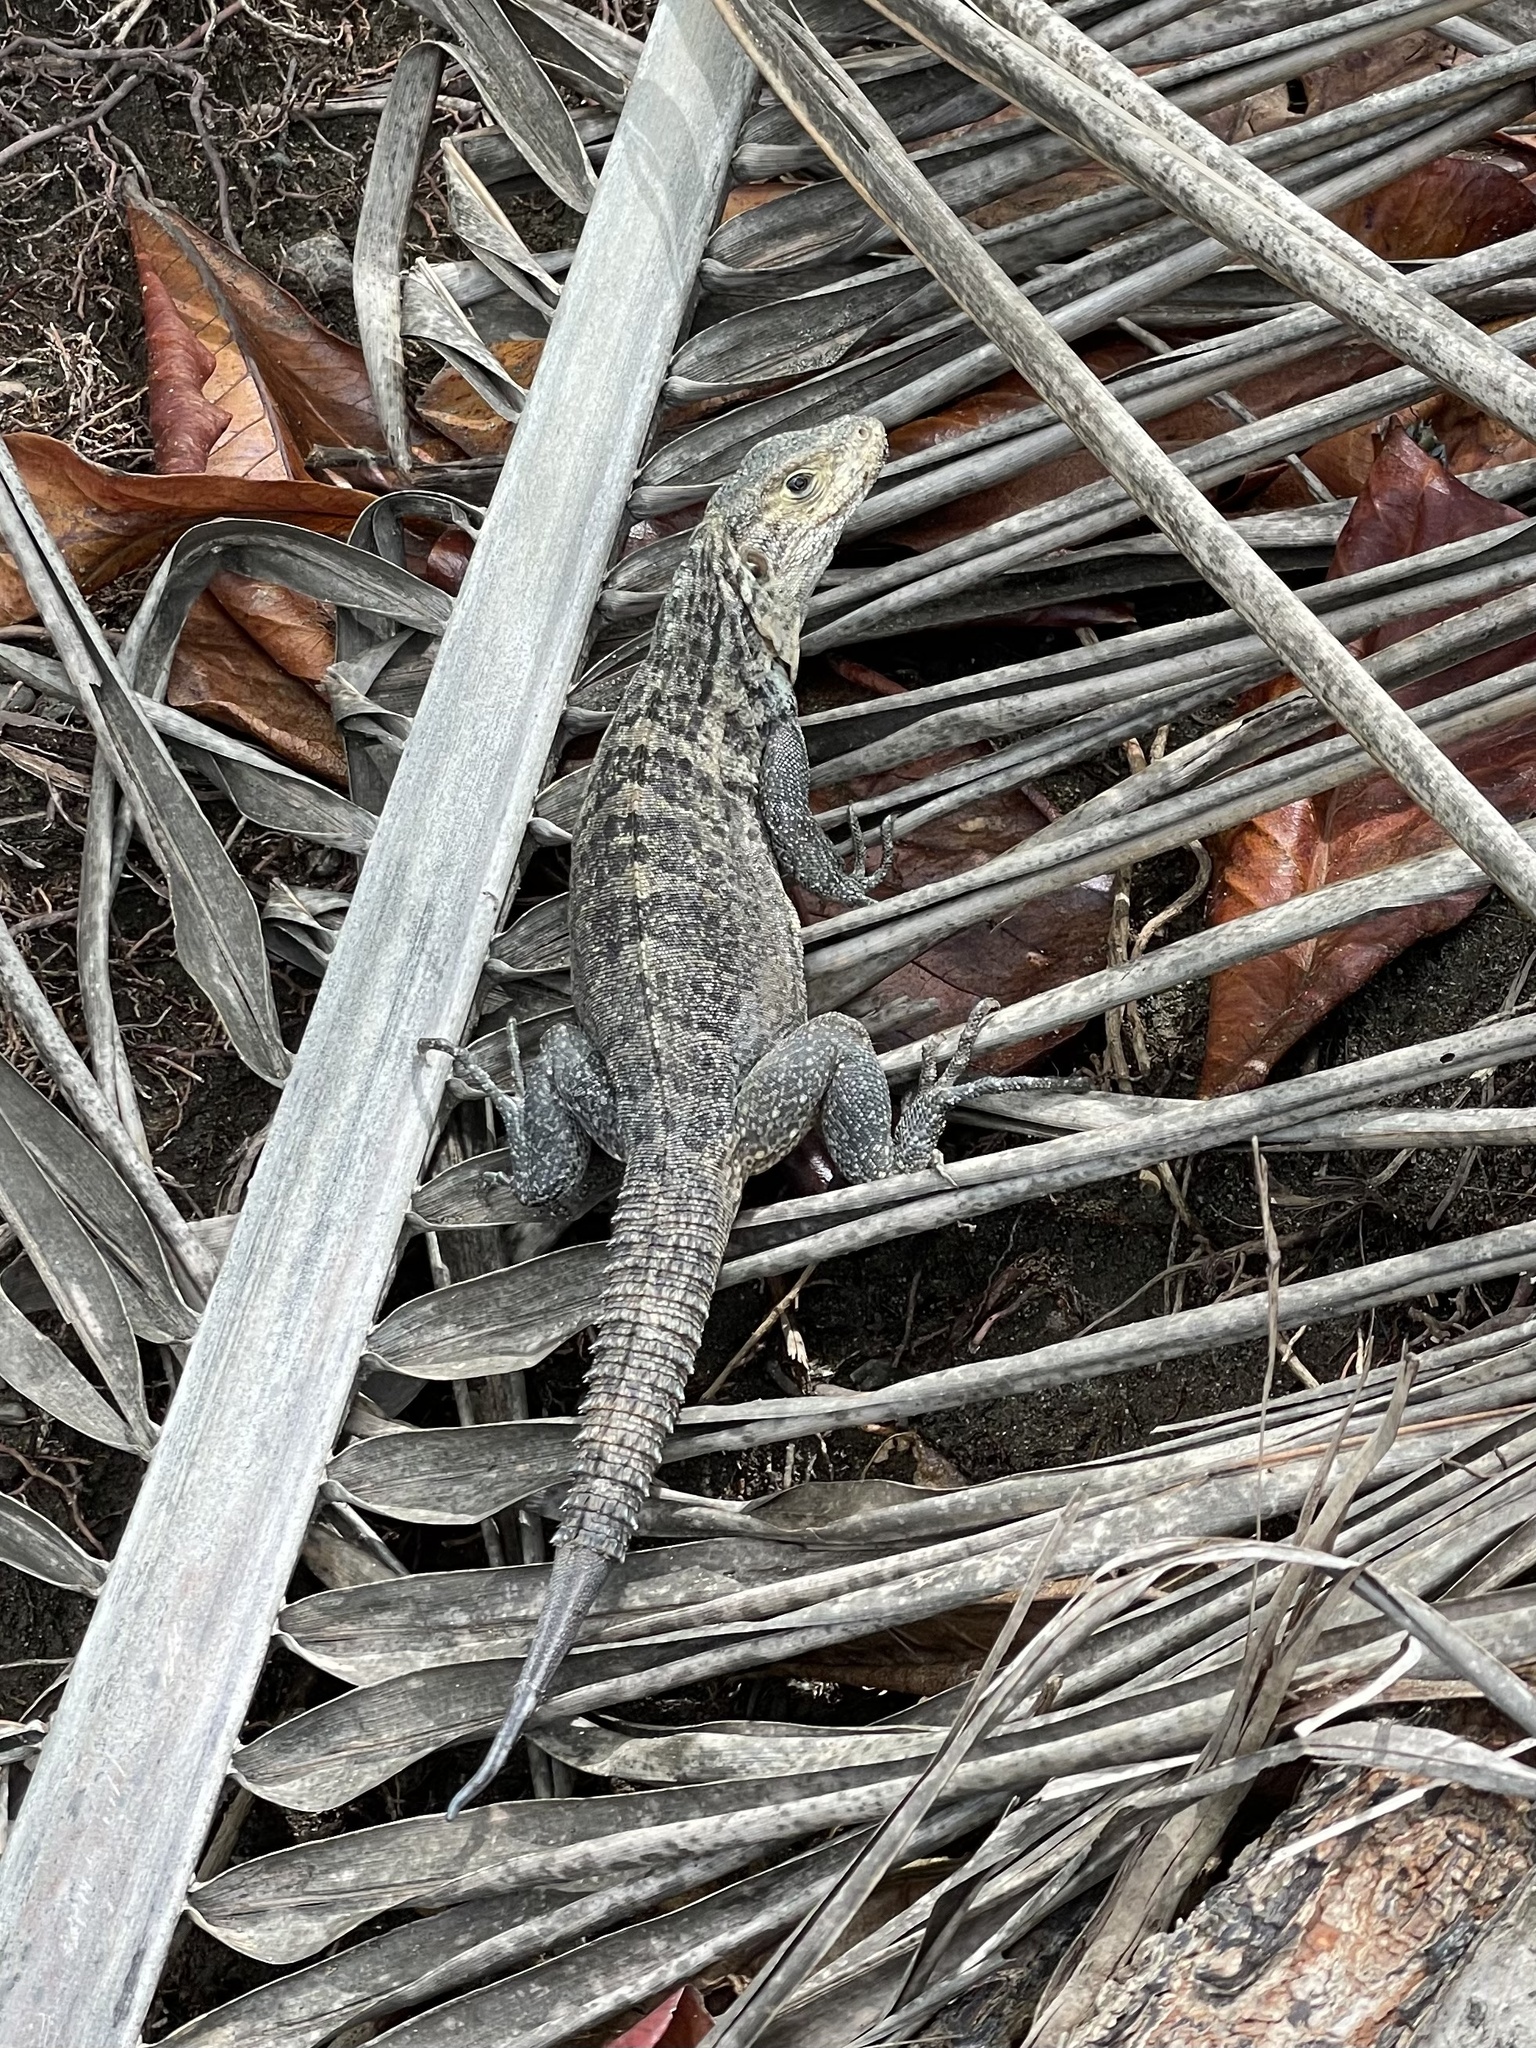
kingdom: Animalia
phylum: Chordata
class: Squamata
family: Iguanidae
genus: Ctenosaura
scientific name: Ctenosaura similis
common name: Black spiny-tailed iguana
